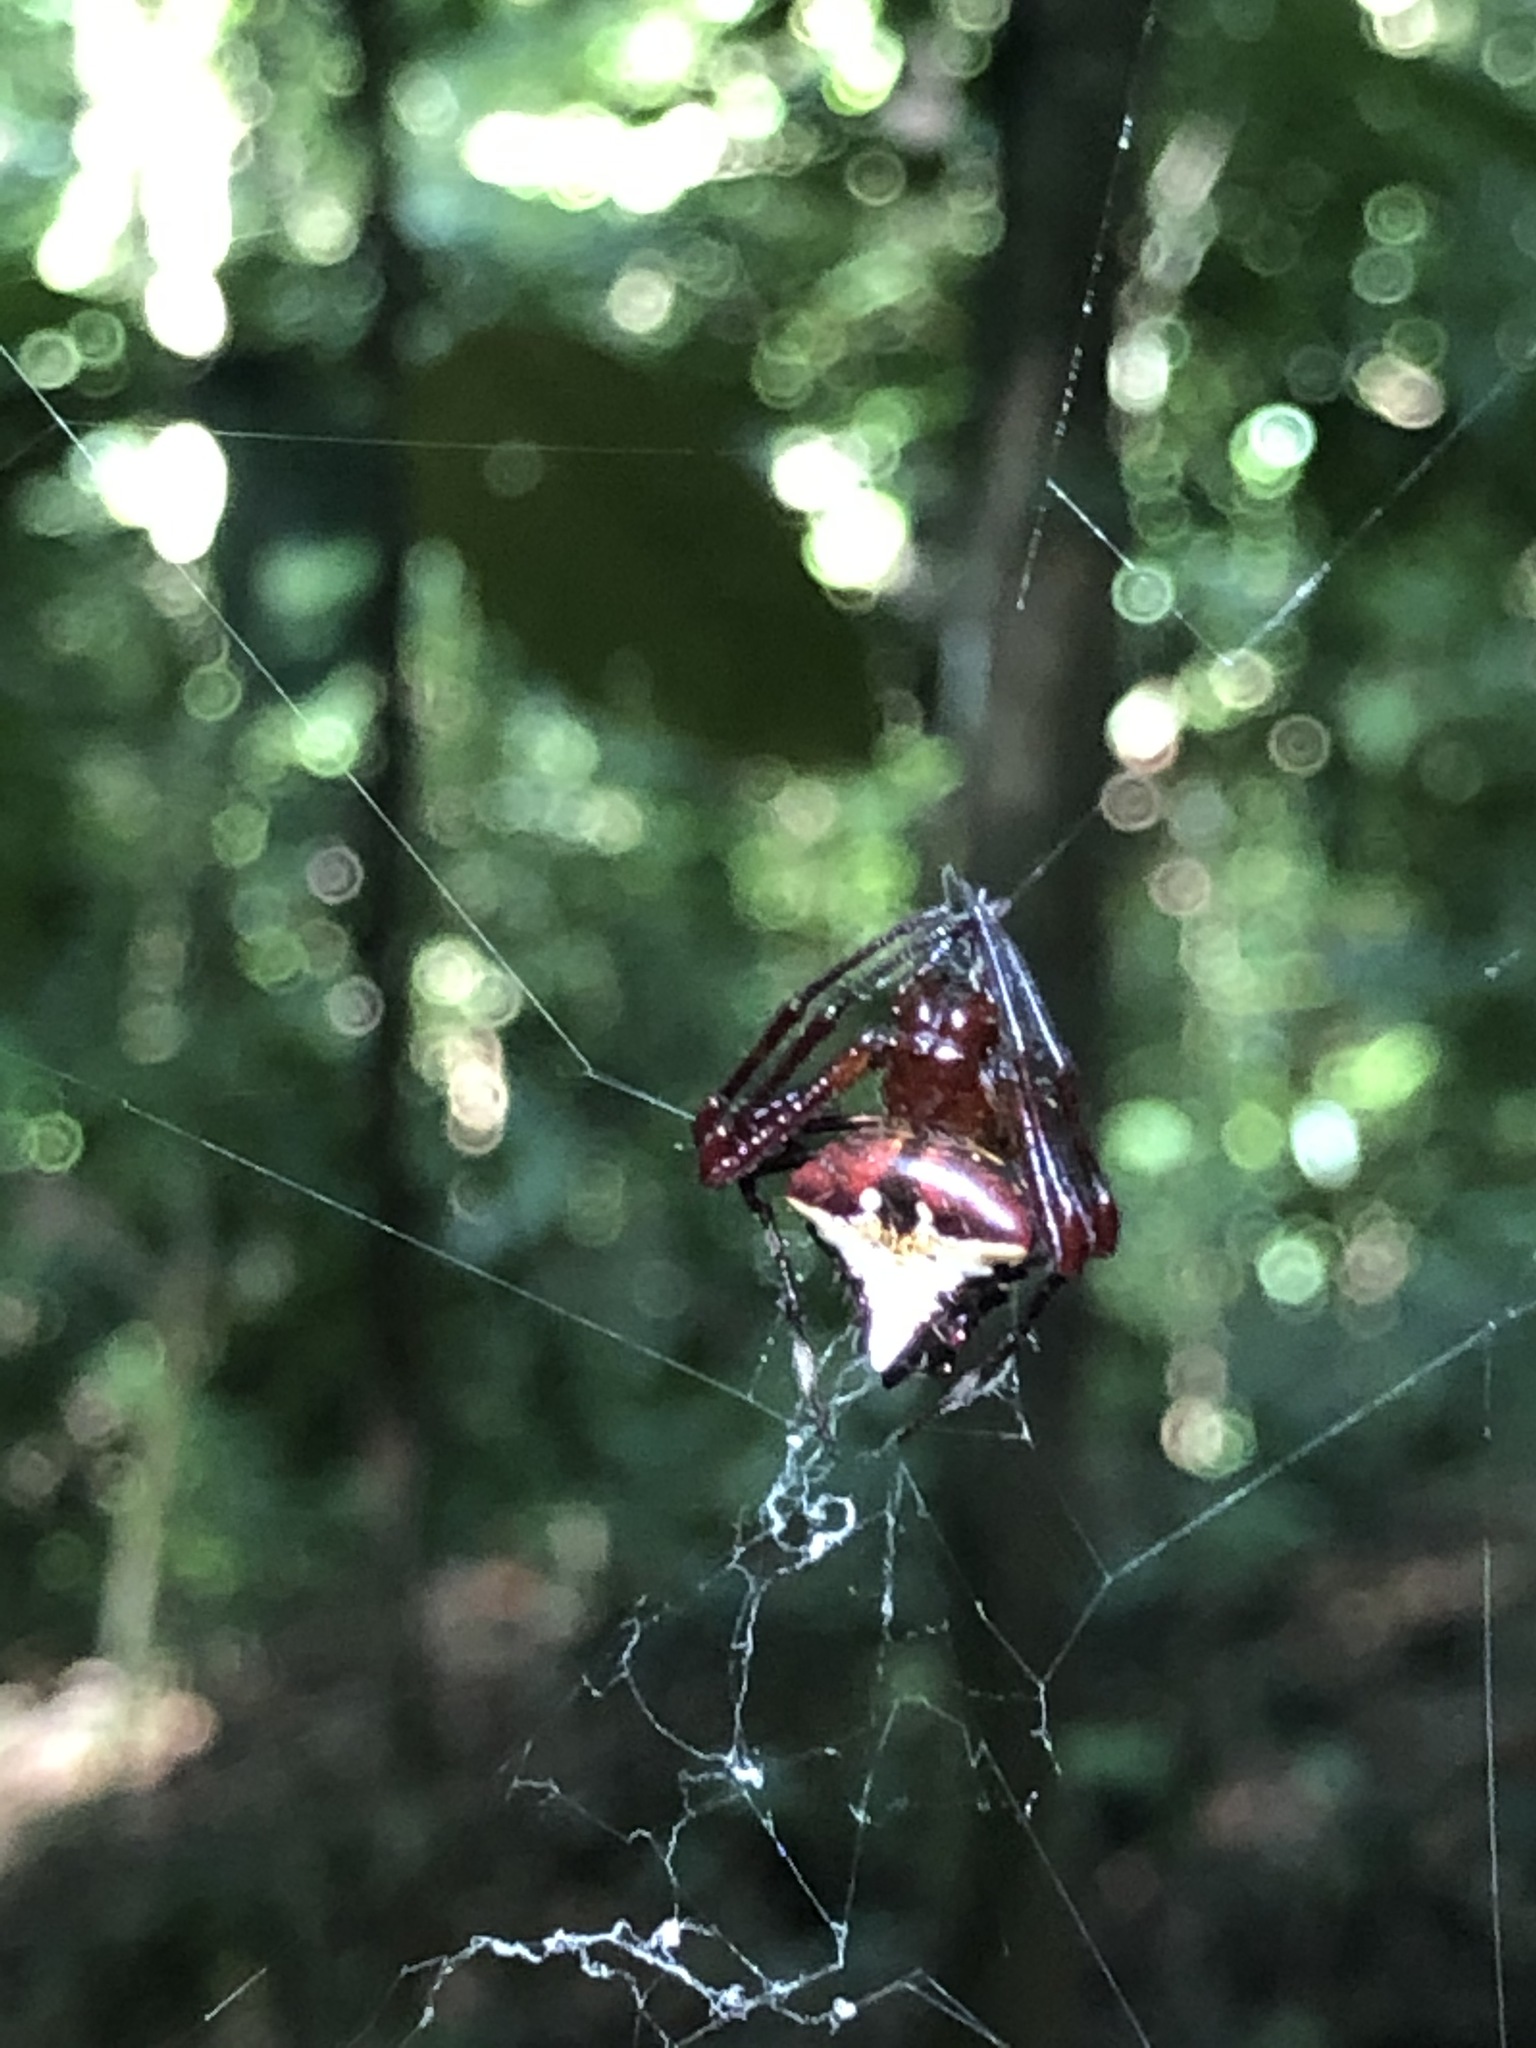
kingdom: Animalia
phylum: Arthropoda
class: Arachnida
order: Araneae
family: Araneidae
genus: Verrucosa
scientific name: Verrucosa arenata
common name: Orb weavers
